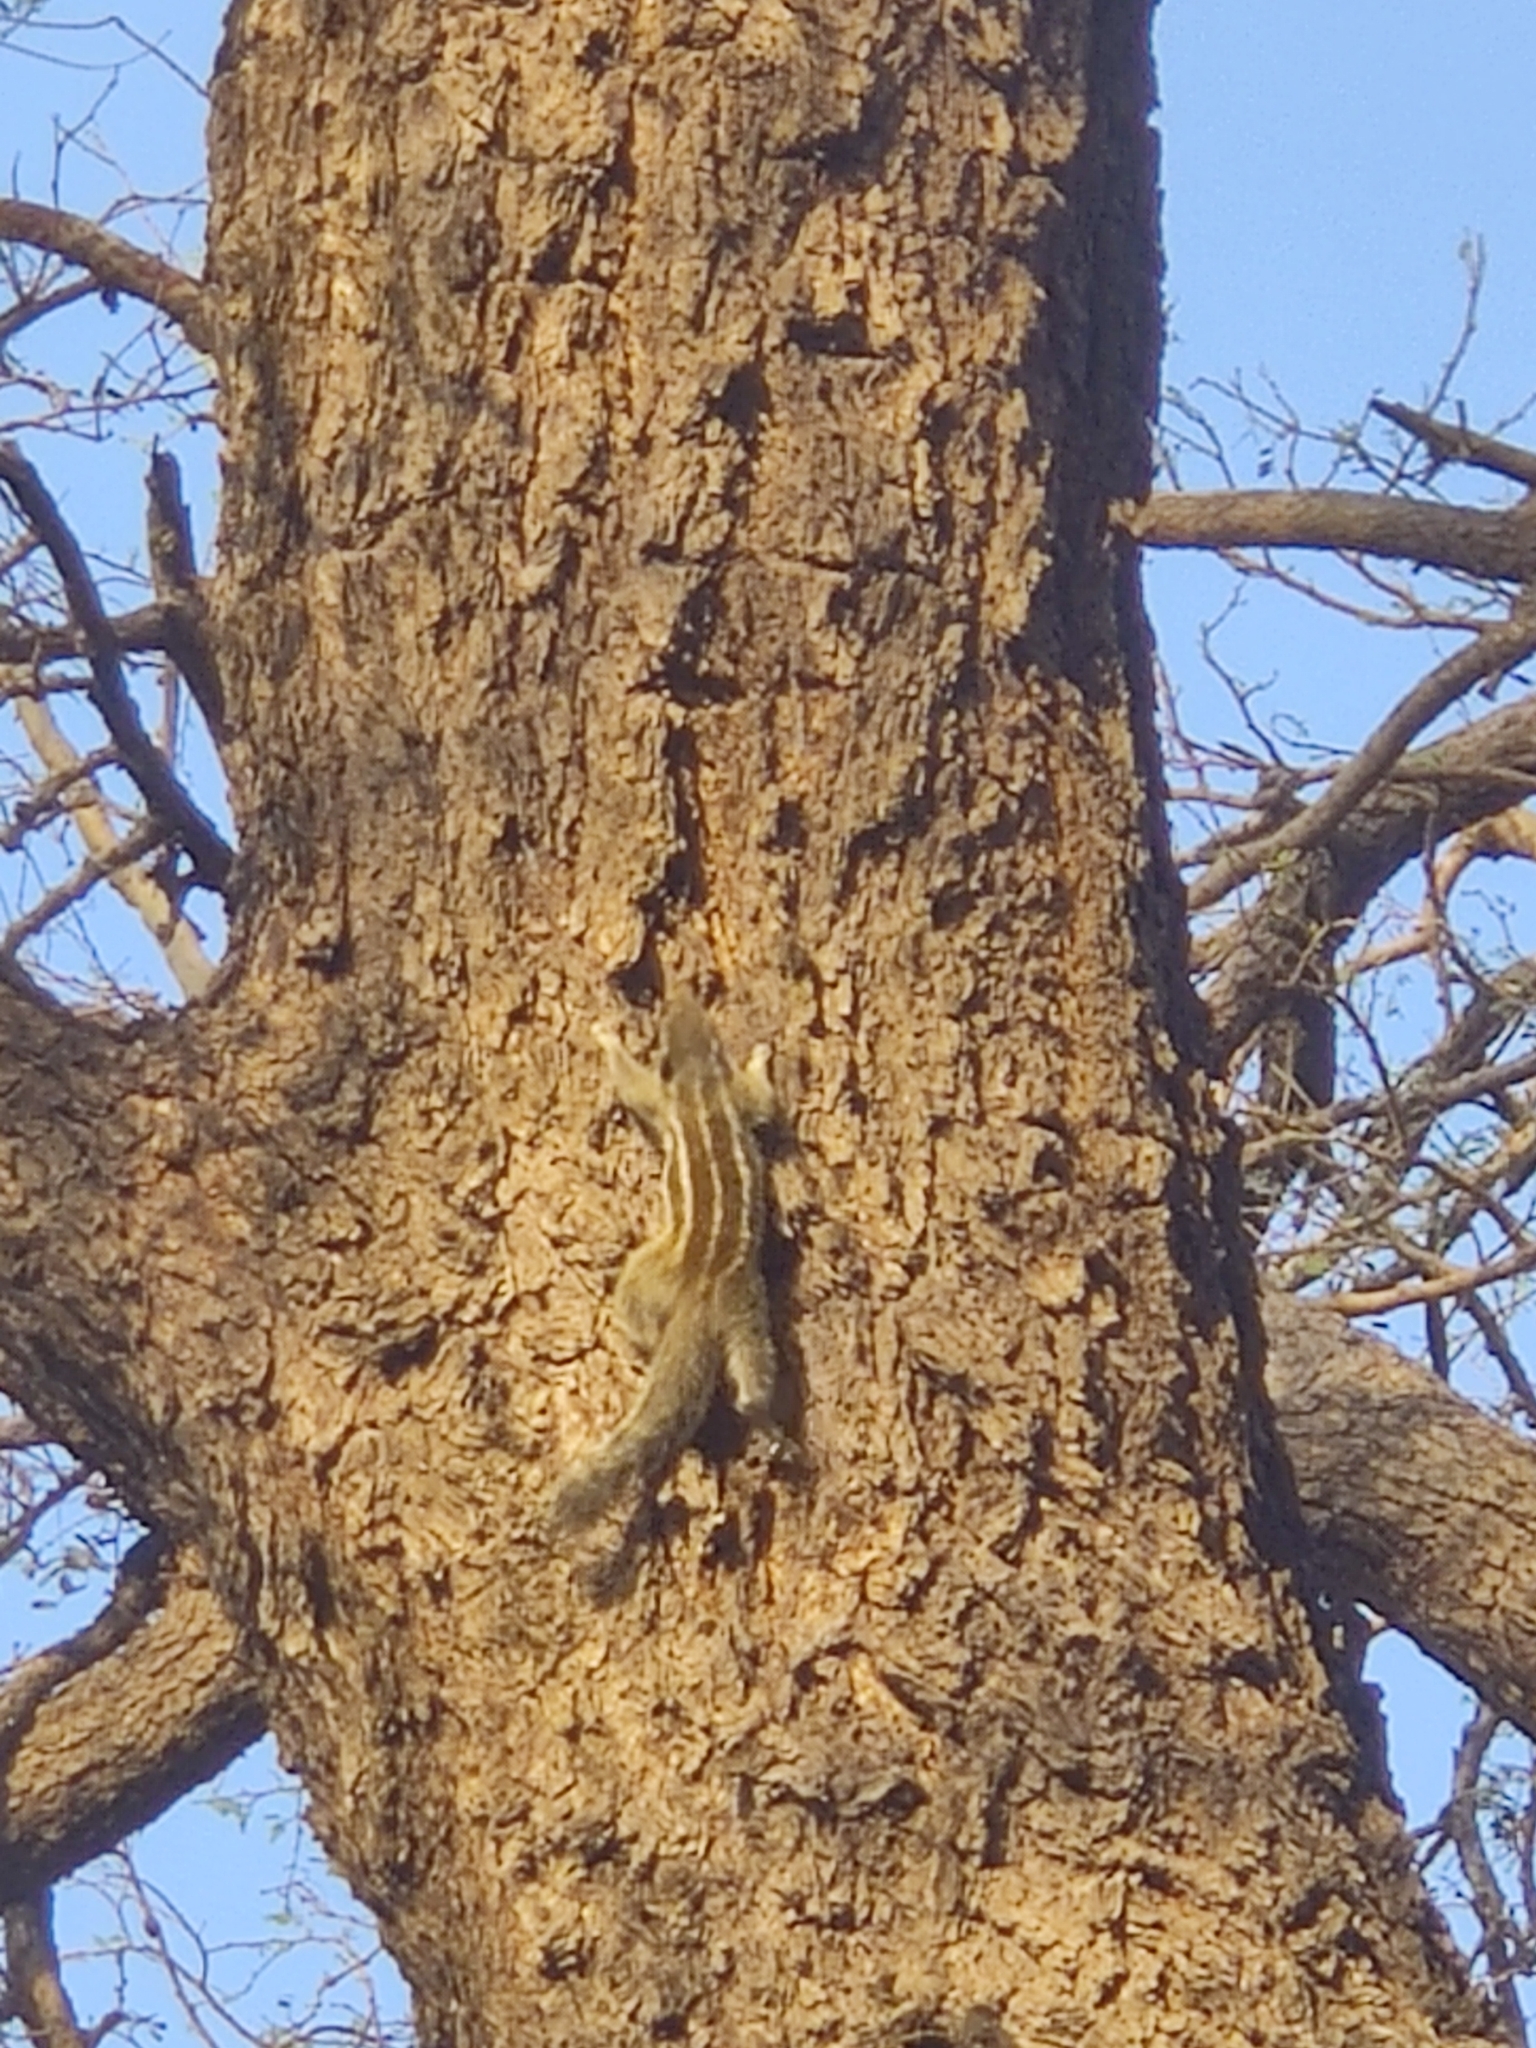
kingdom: Animalia
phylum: Chordata
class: Mammalia
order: Rodentia
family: Sciuridae
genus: Funambulus
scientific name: Funambulus pennantii
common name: Northern palm squirrel
